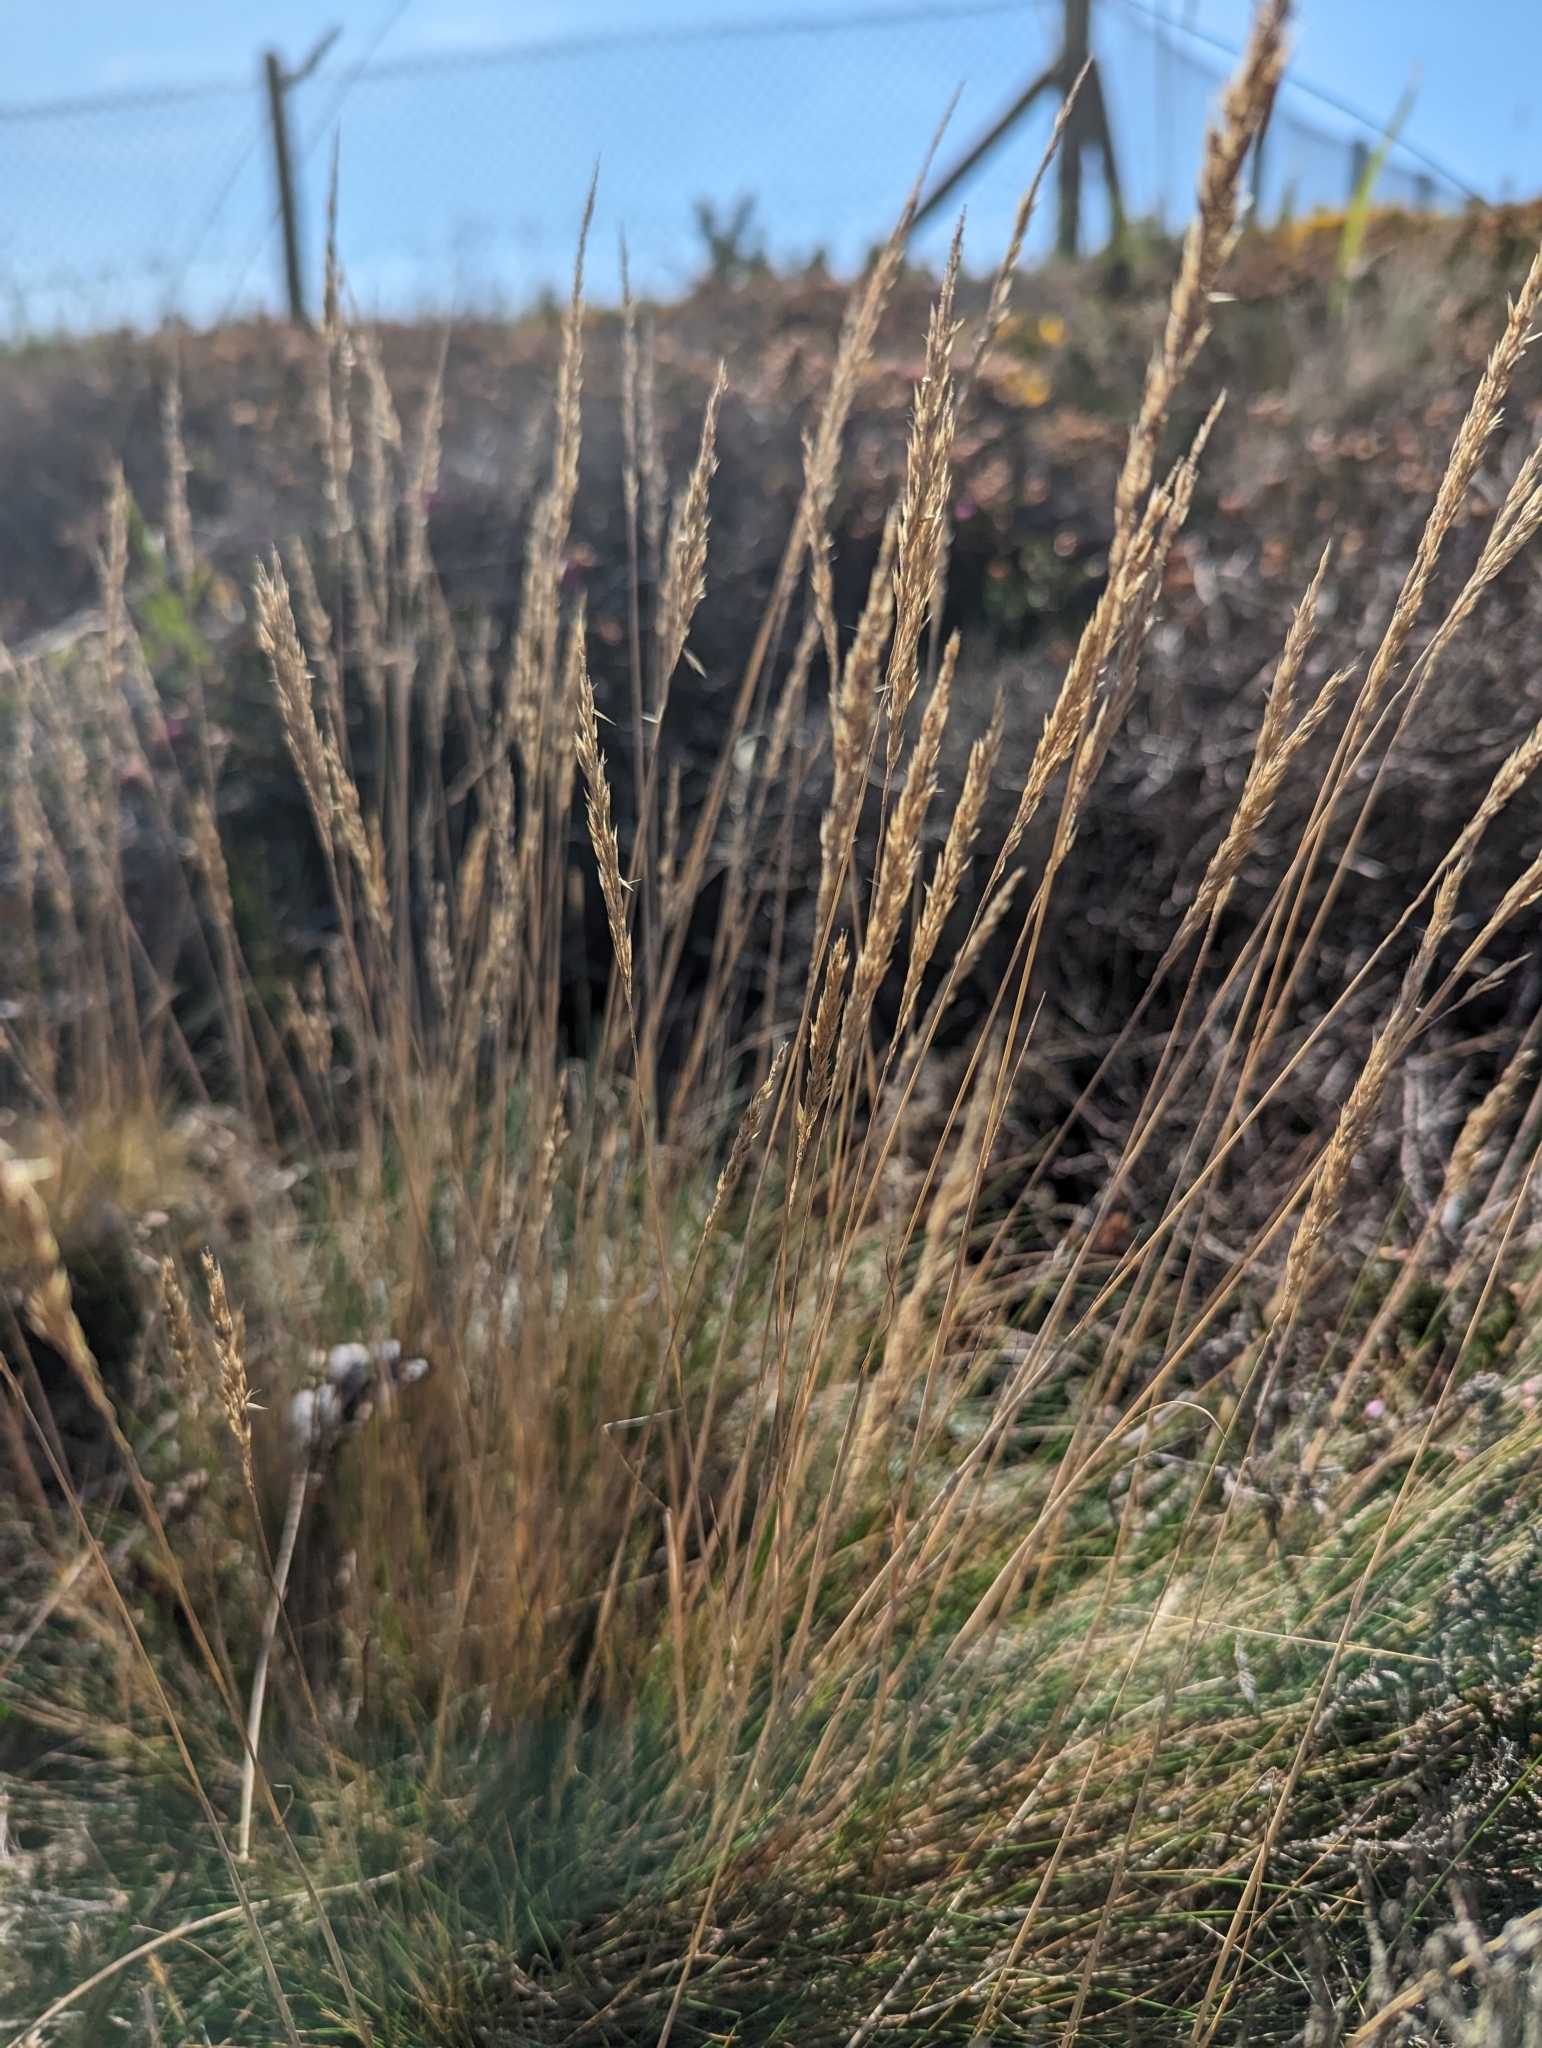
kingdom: Plantae
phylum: Tracheophyta
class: Liliopsida
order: Poales
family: Poaceae
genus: Molinia
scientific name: Molinia caerulea
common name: Purple moor-grass
